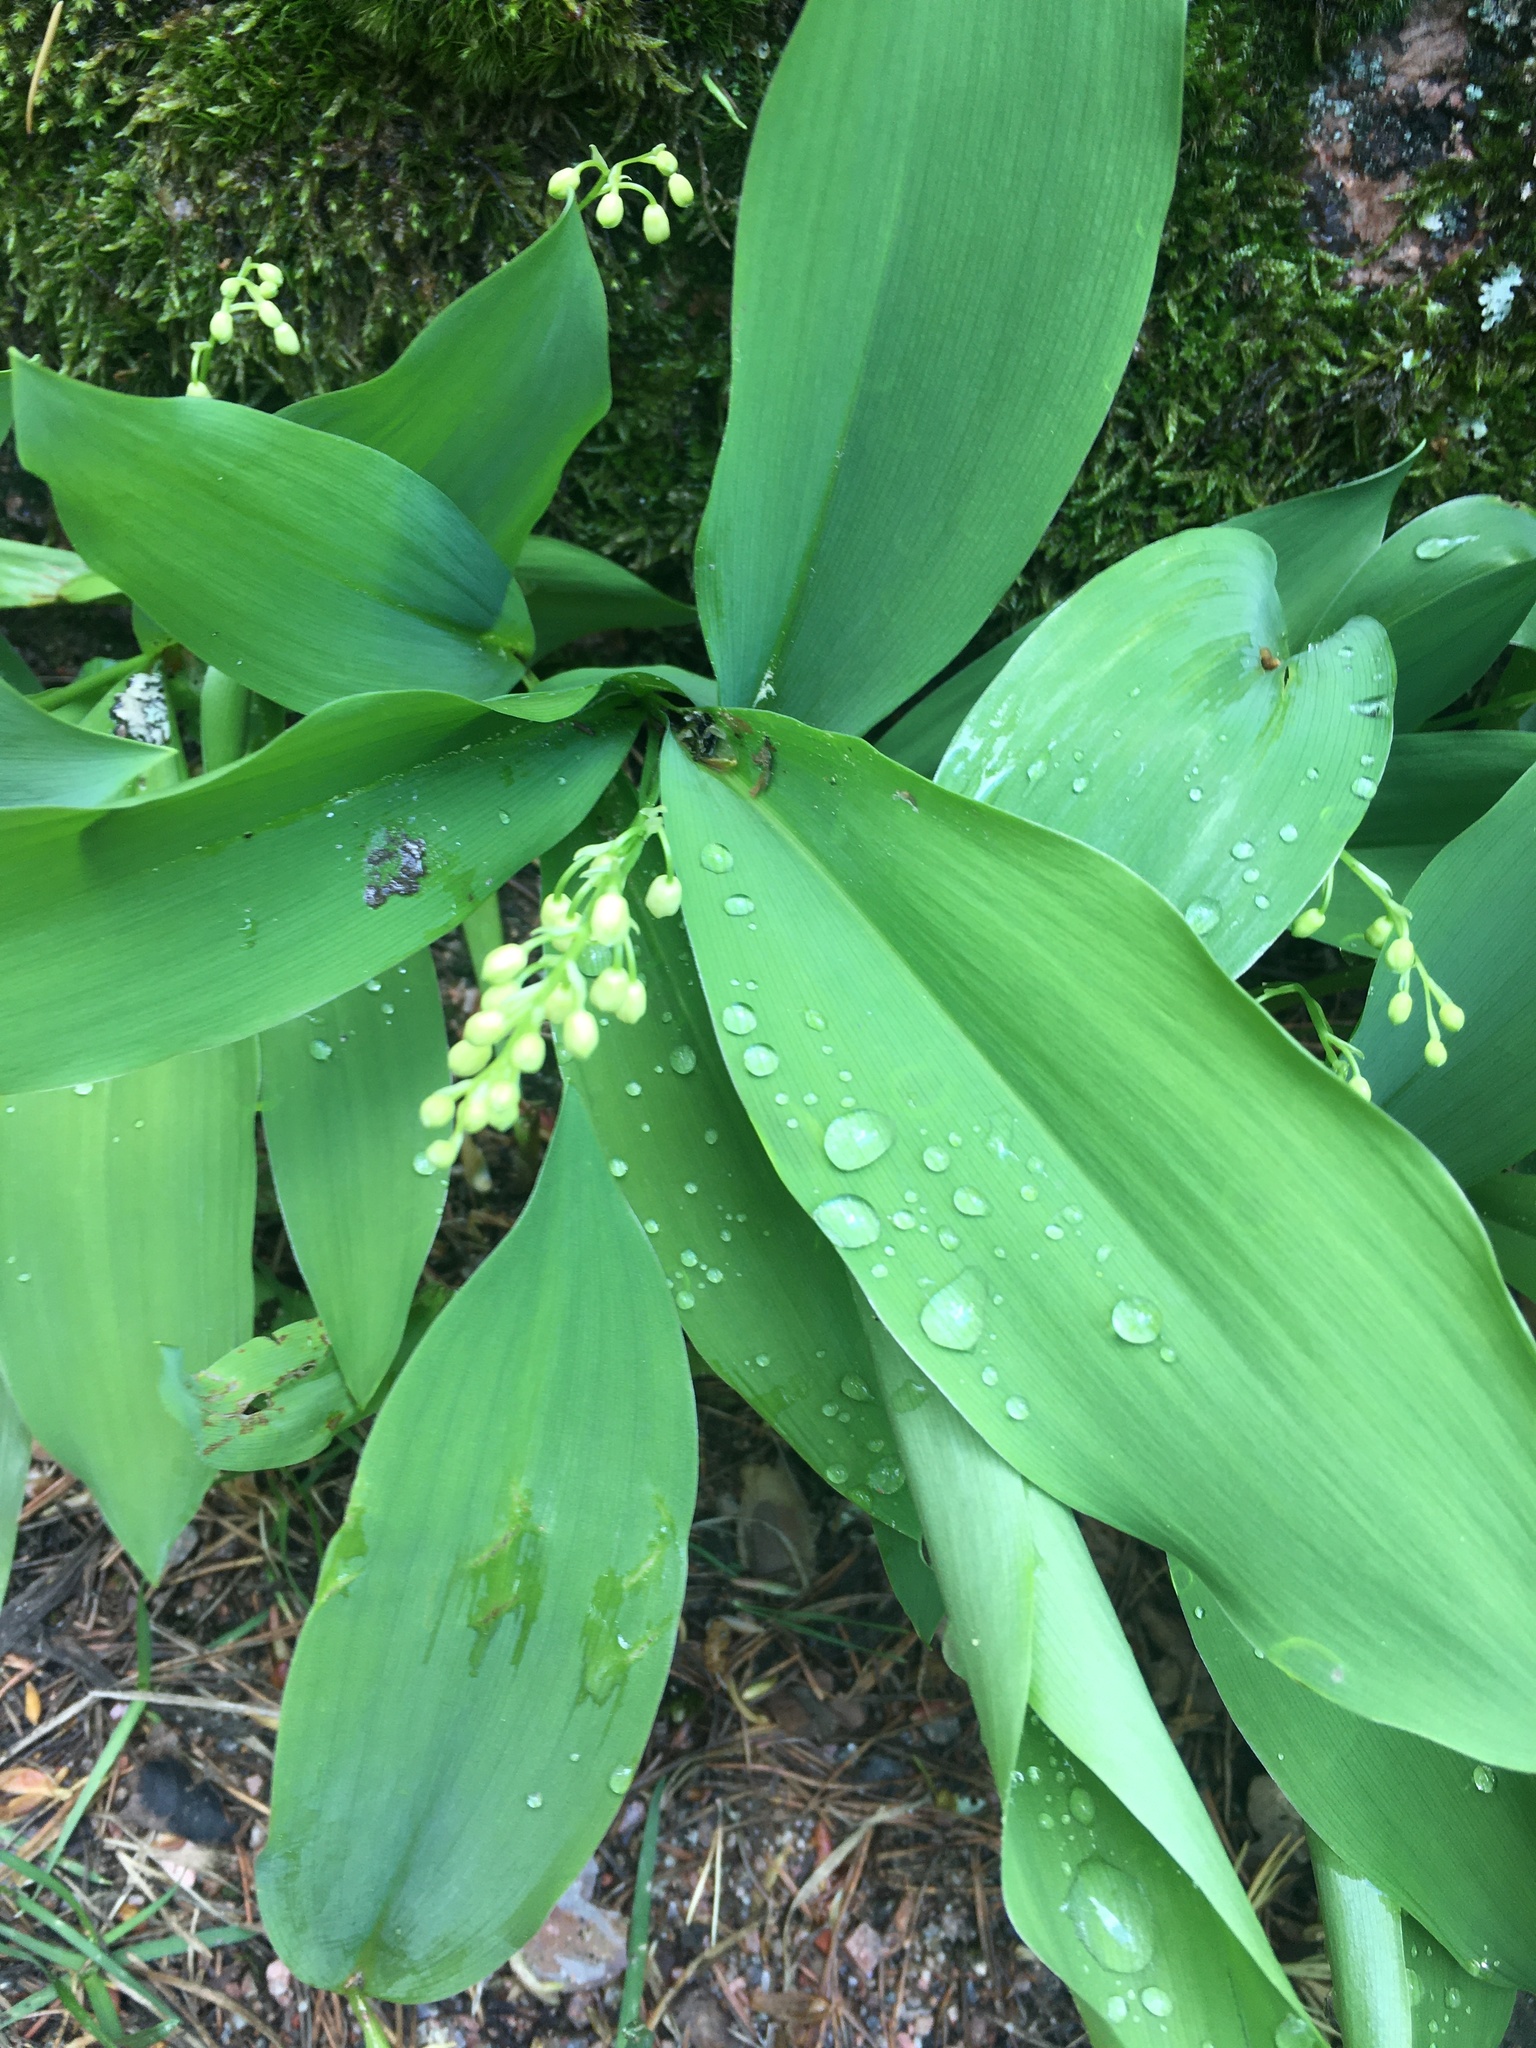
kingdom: Plantae
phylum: Tracheophyta
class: Liliopsida
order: Asparagales
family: Asparagaceae
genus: Convallaria
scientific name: Convallaria majalis
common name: Lily-of-the-valley
